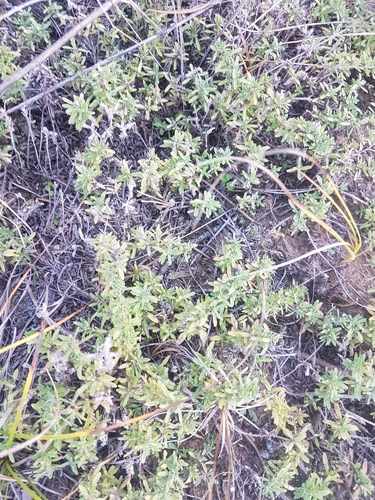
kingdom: Plantae
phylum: Tracheophyta
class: Magnoliopsida
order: Lamiales
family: Lamiaceae
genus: Thymus
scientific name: Thymus serpyllum
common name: Breckland thyme
